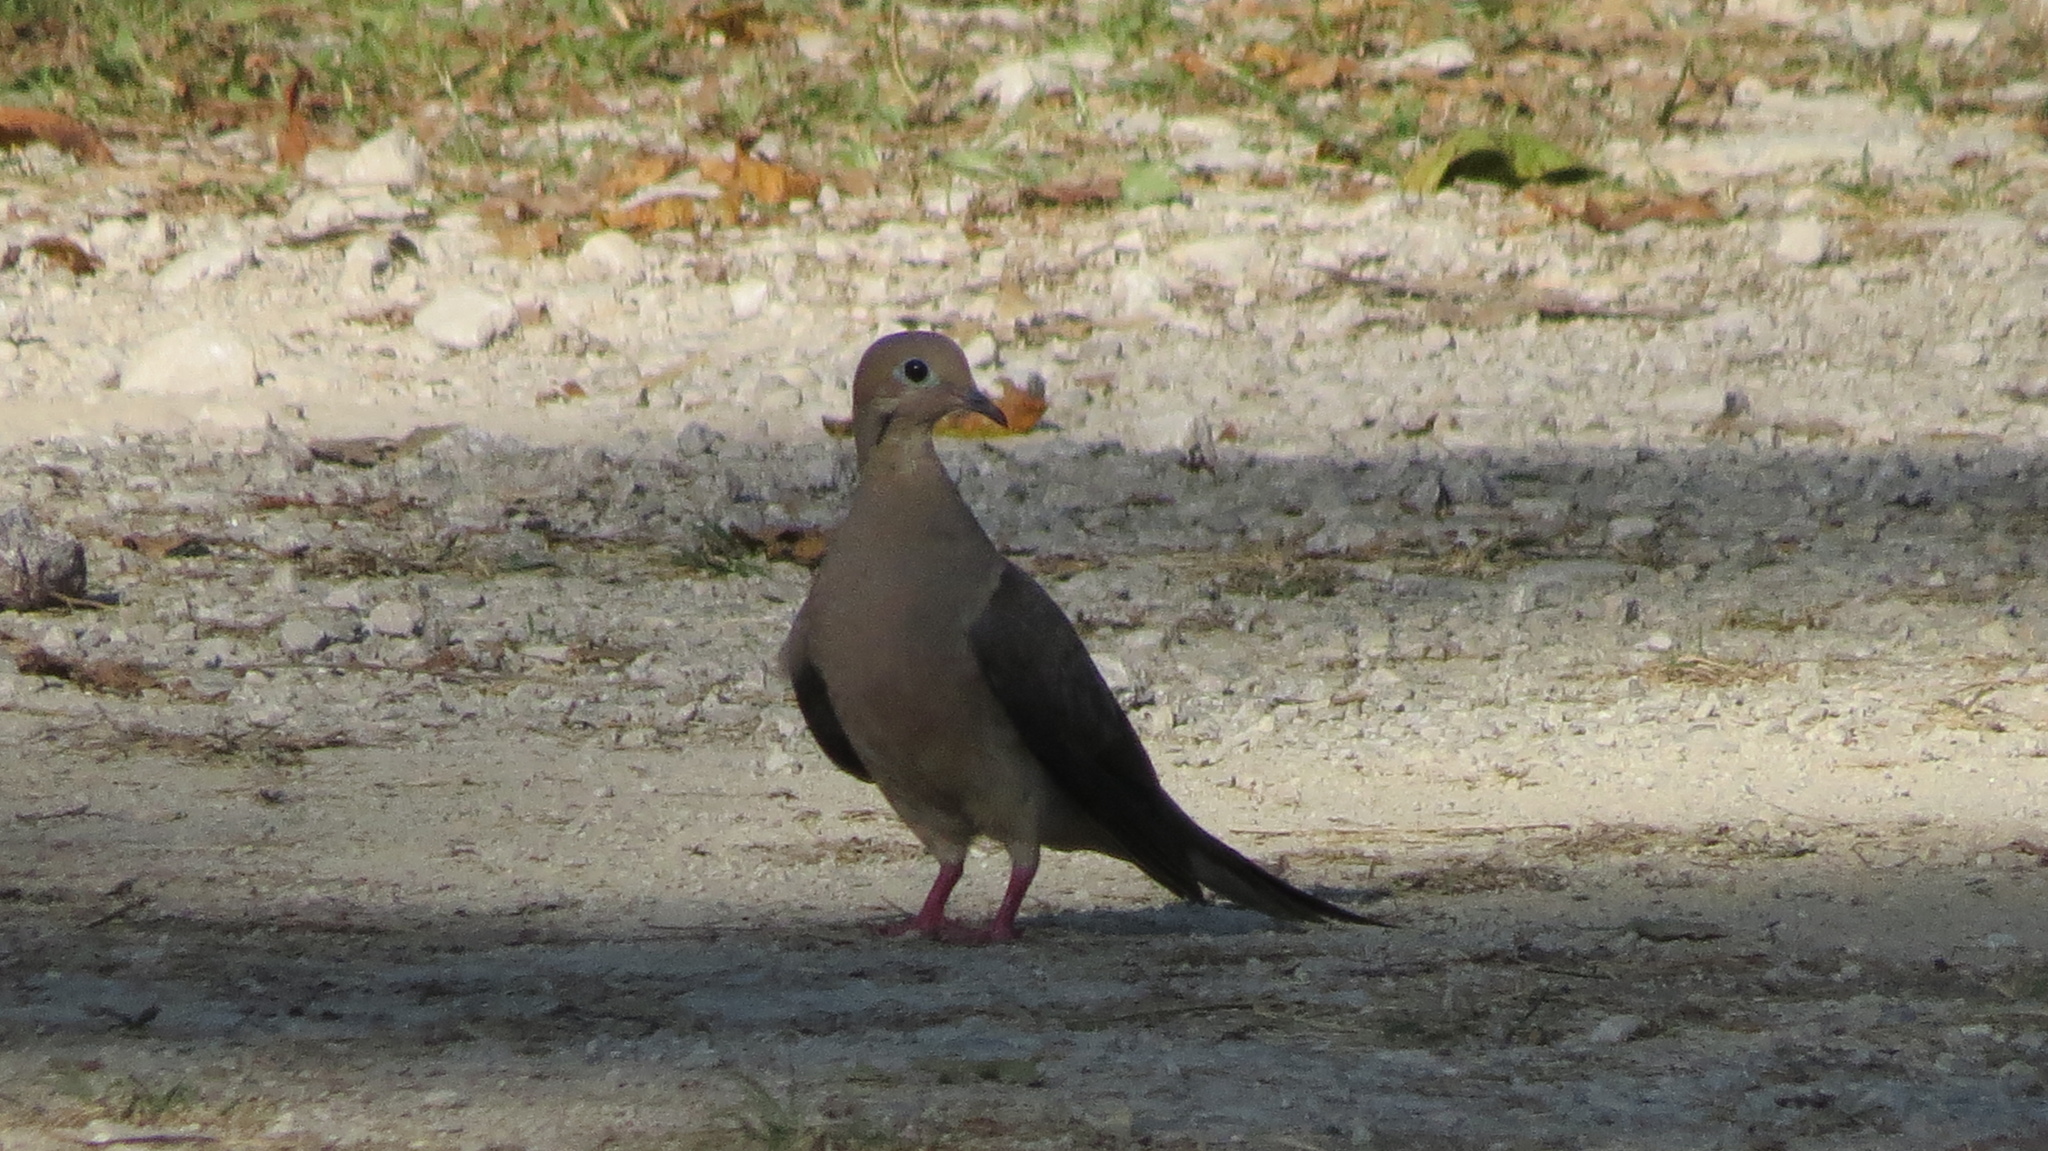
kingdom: Animalia
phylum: Chordata
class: Aves
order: Columbiformes
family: Columbidae
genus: Zenaida
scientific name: Zenaida macroura
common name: Mourning dove
